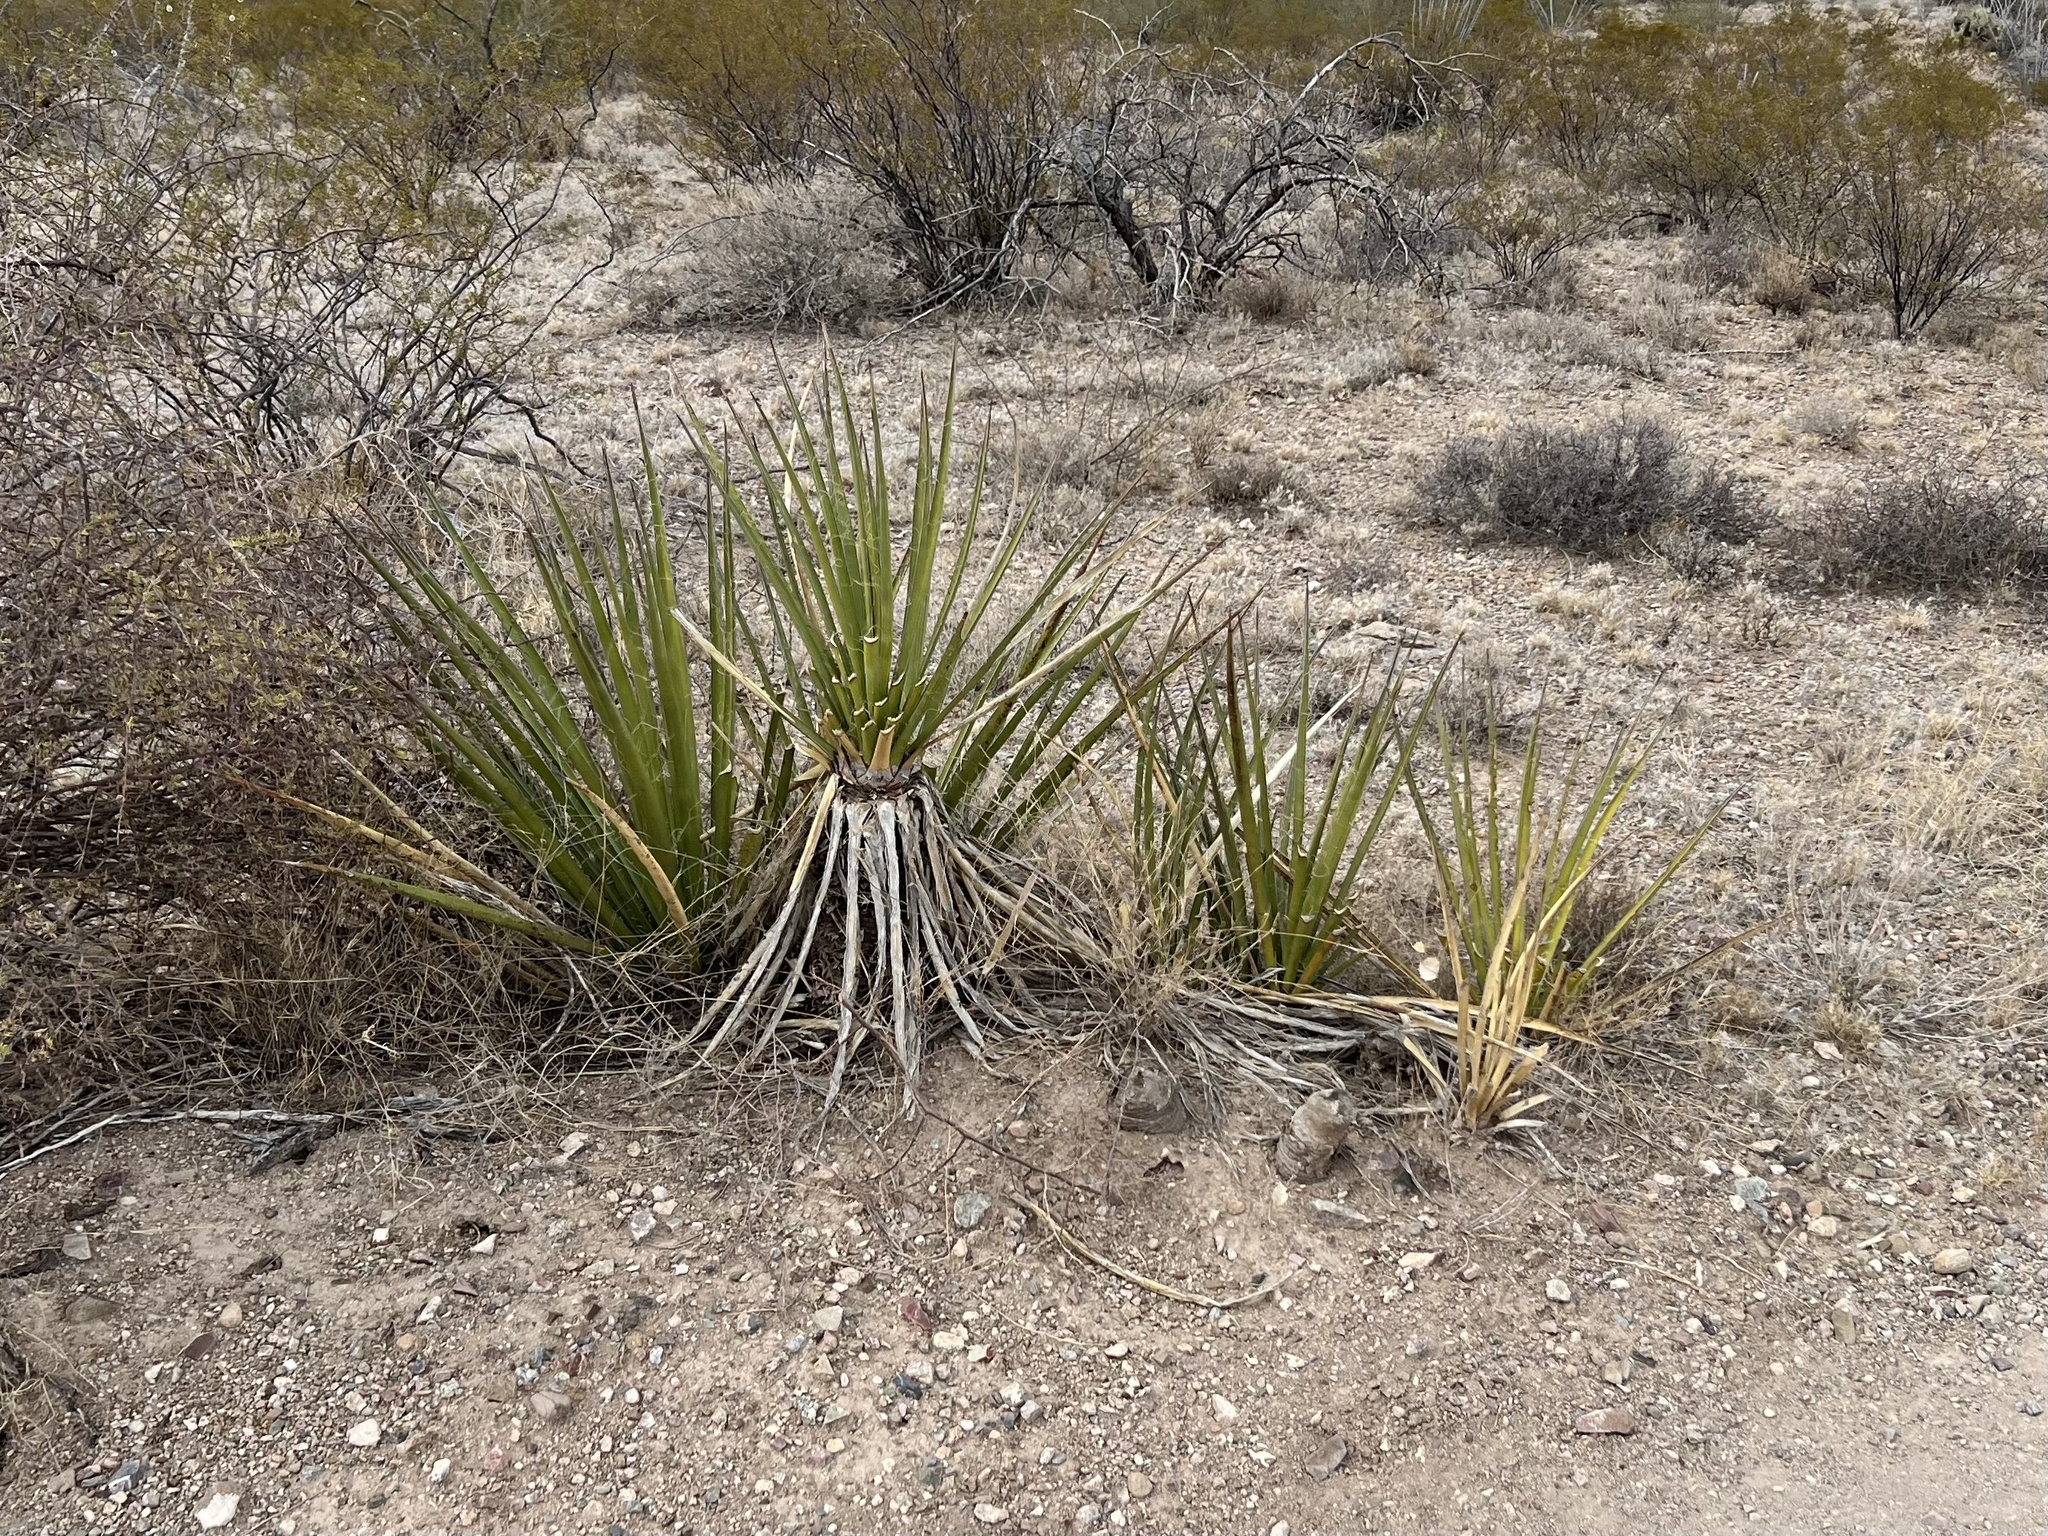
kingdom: Plantae
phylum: Tracheophyta
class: Liliopsida
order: Asparagales
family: Asparagaceae
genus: Yucca
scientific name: Yucca baccata
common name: Banana yucca
